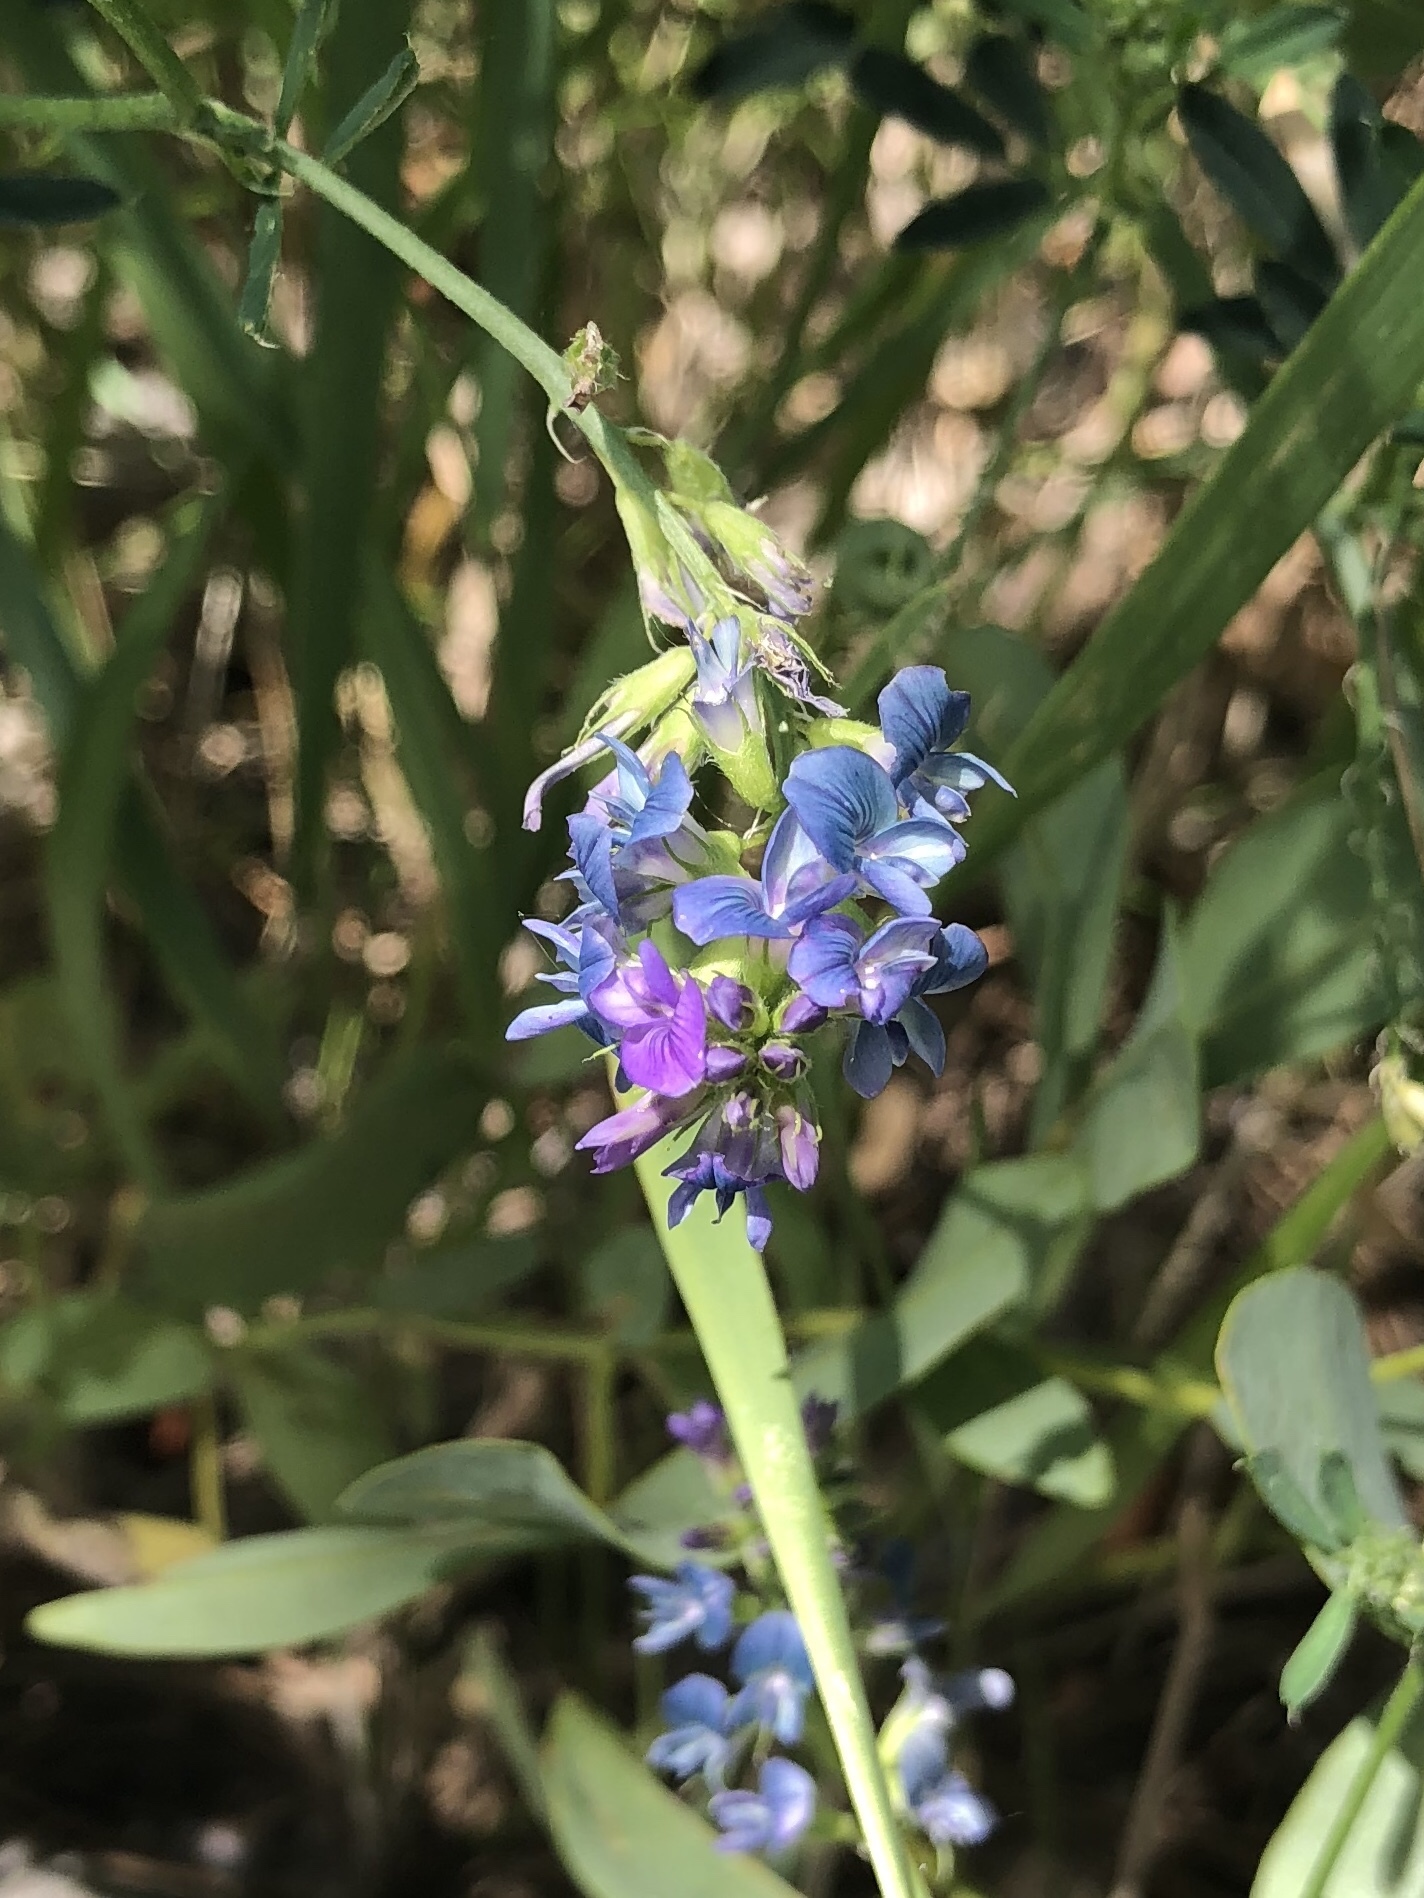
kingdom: Plantae
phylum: Tracheophyta
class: Magnoliopsida
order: Fabales
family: Fabaceae
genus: Medicago
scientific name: Medicago sativa
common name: Alfalfa
